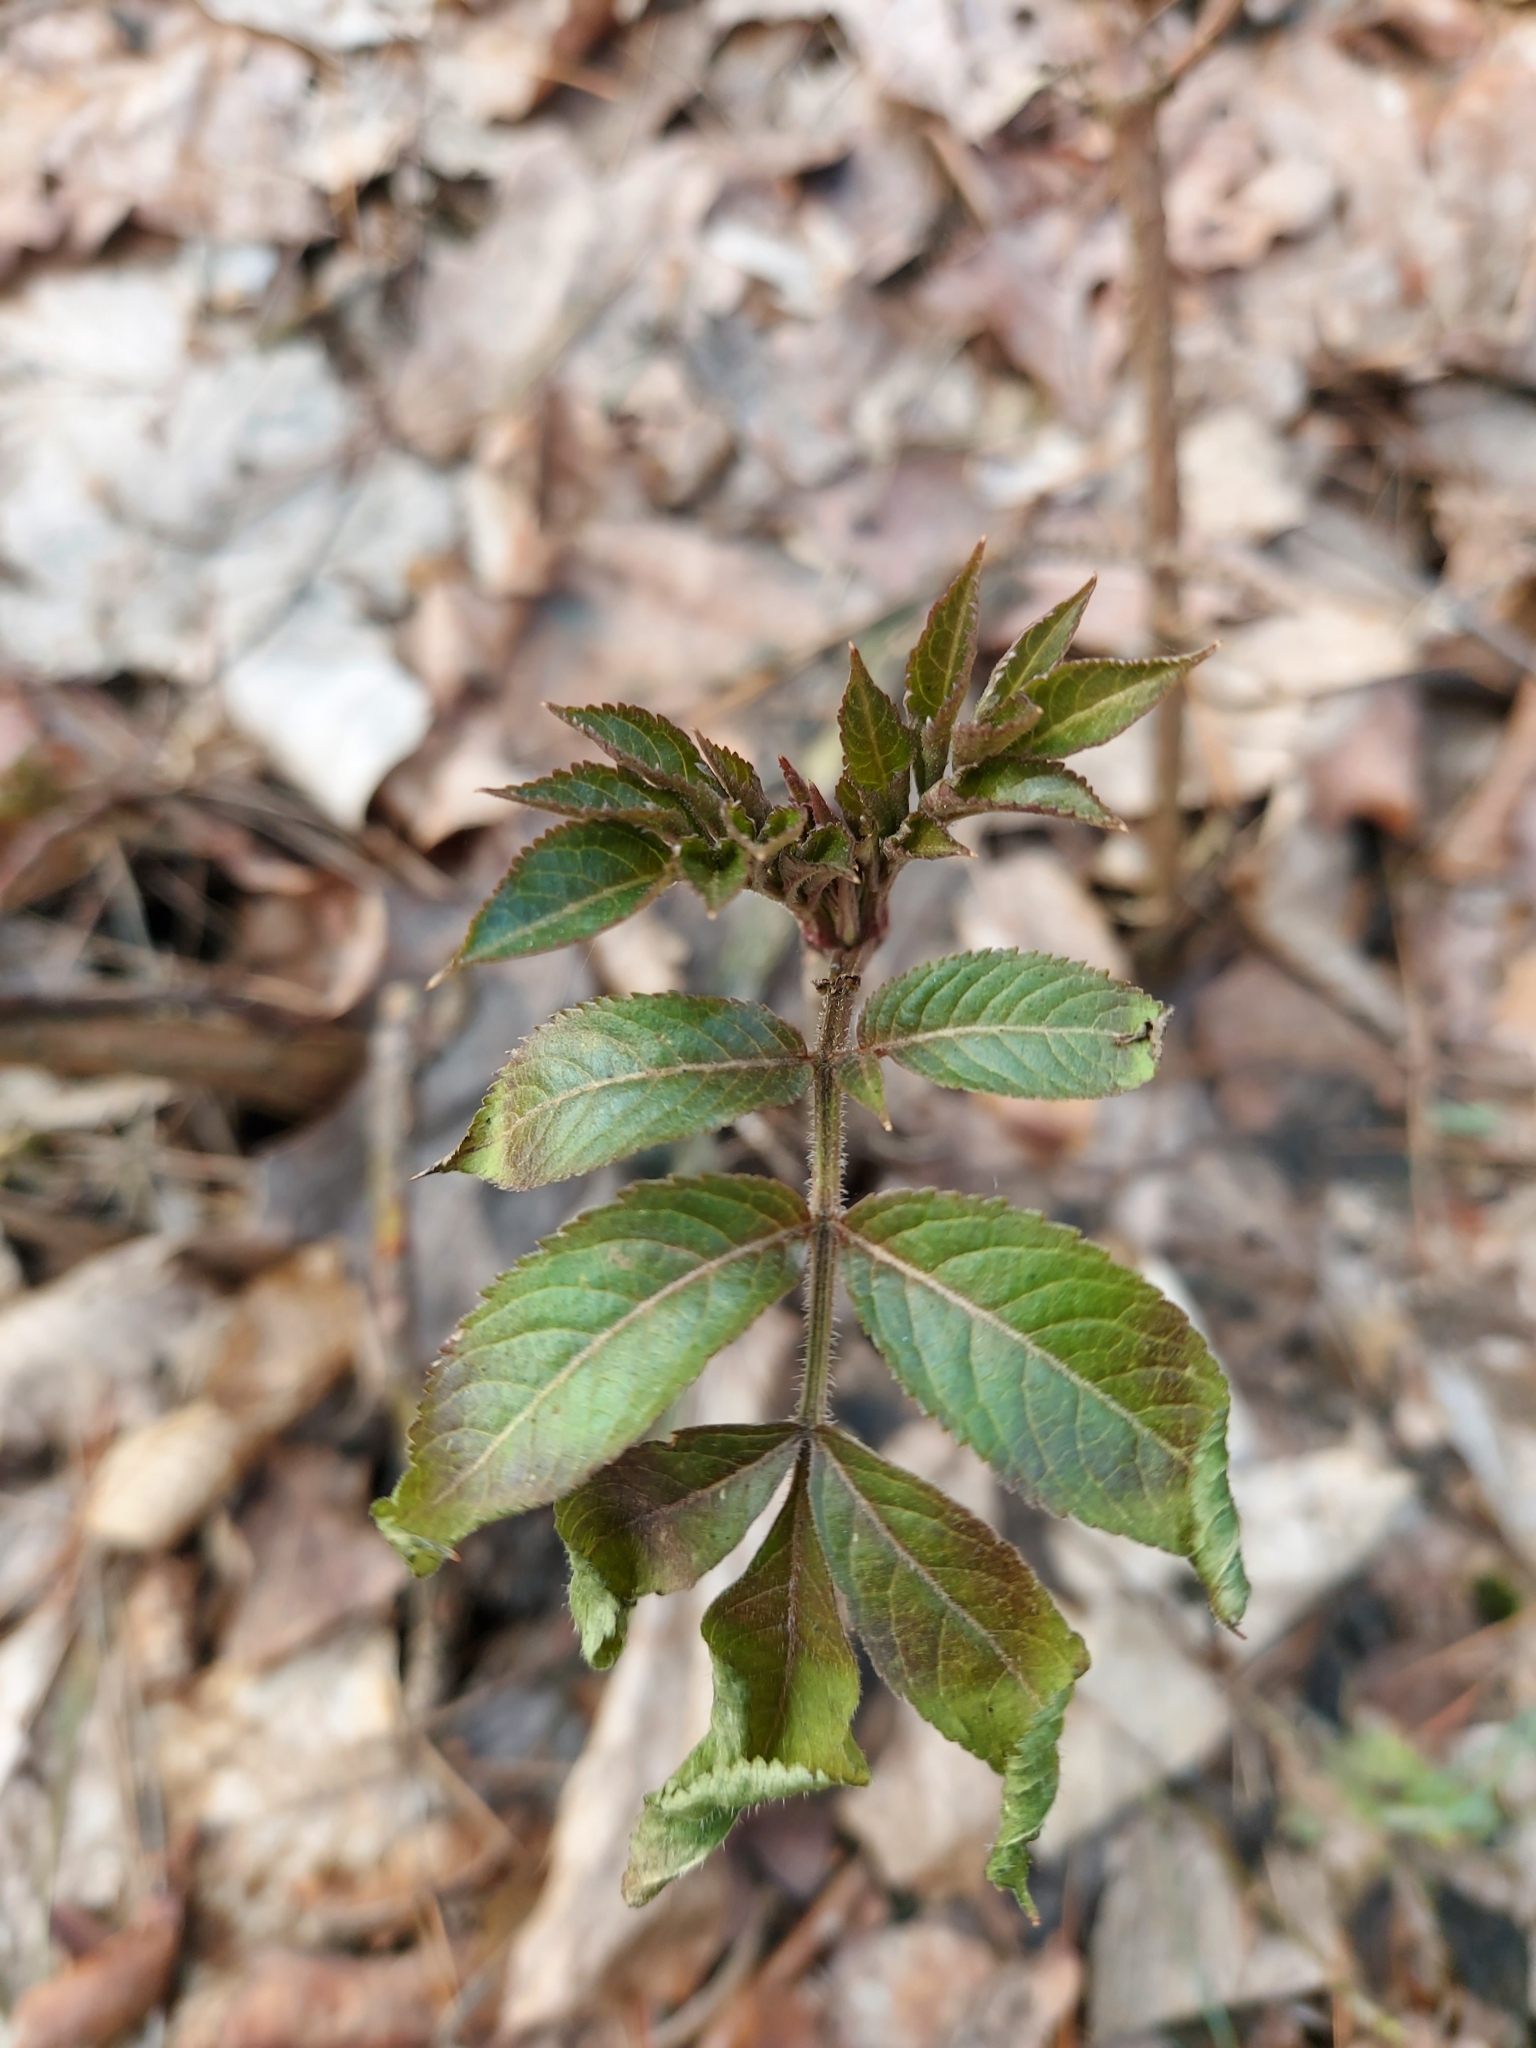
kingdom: Plantae
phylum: Tracheophyta
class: Magnoliopsida
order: Dipsacales
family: Viburnaceae
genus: Sambucus
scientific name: Sambucus racemosa
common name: Red-berried elder
